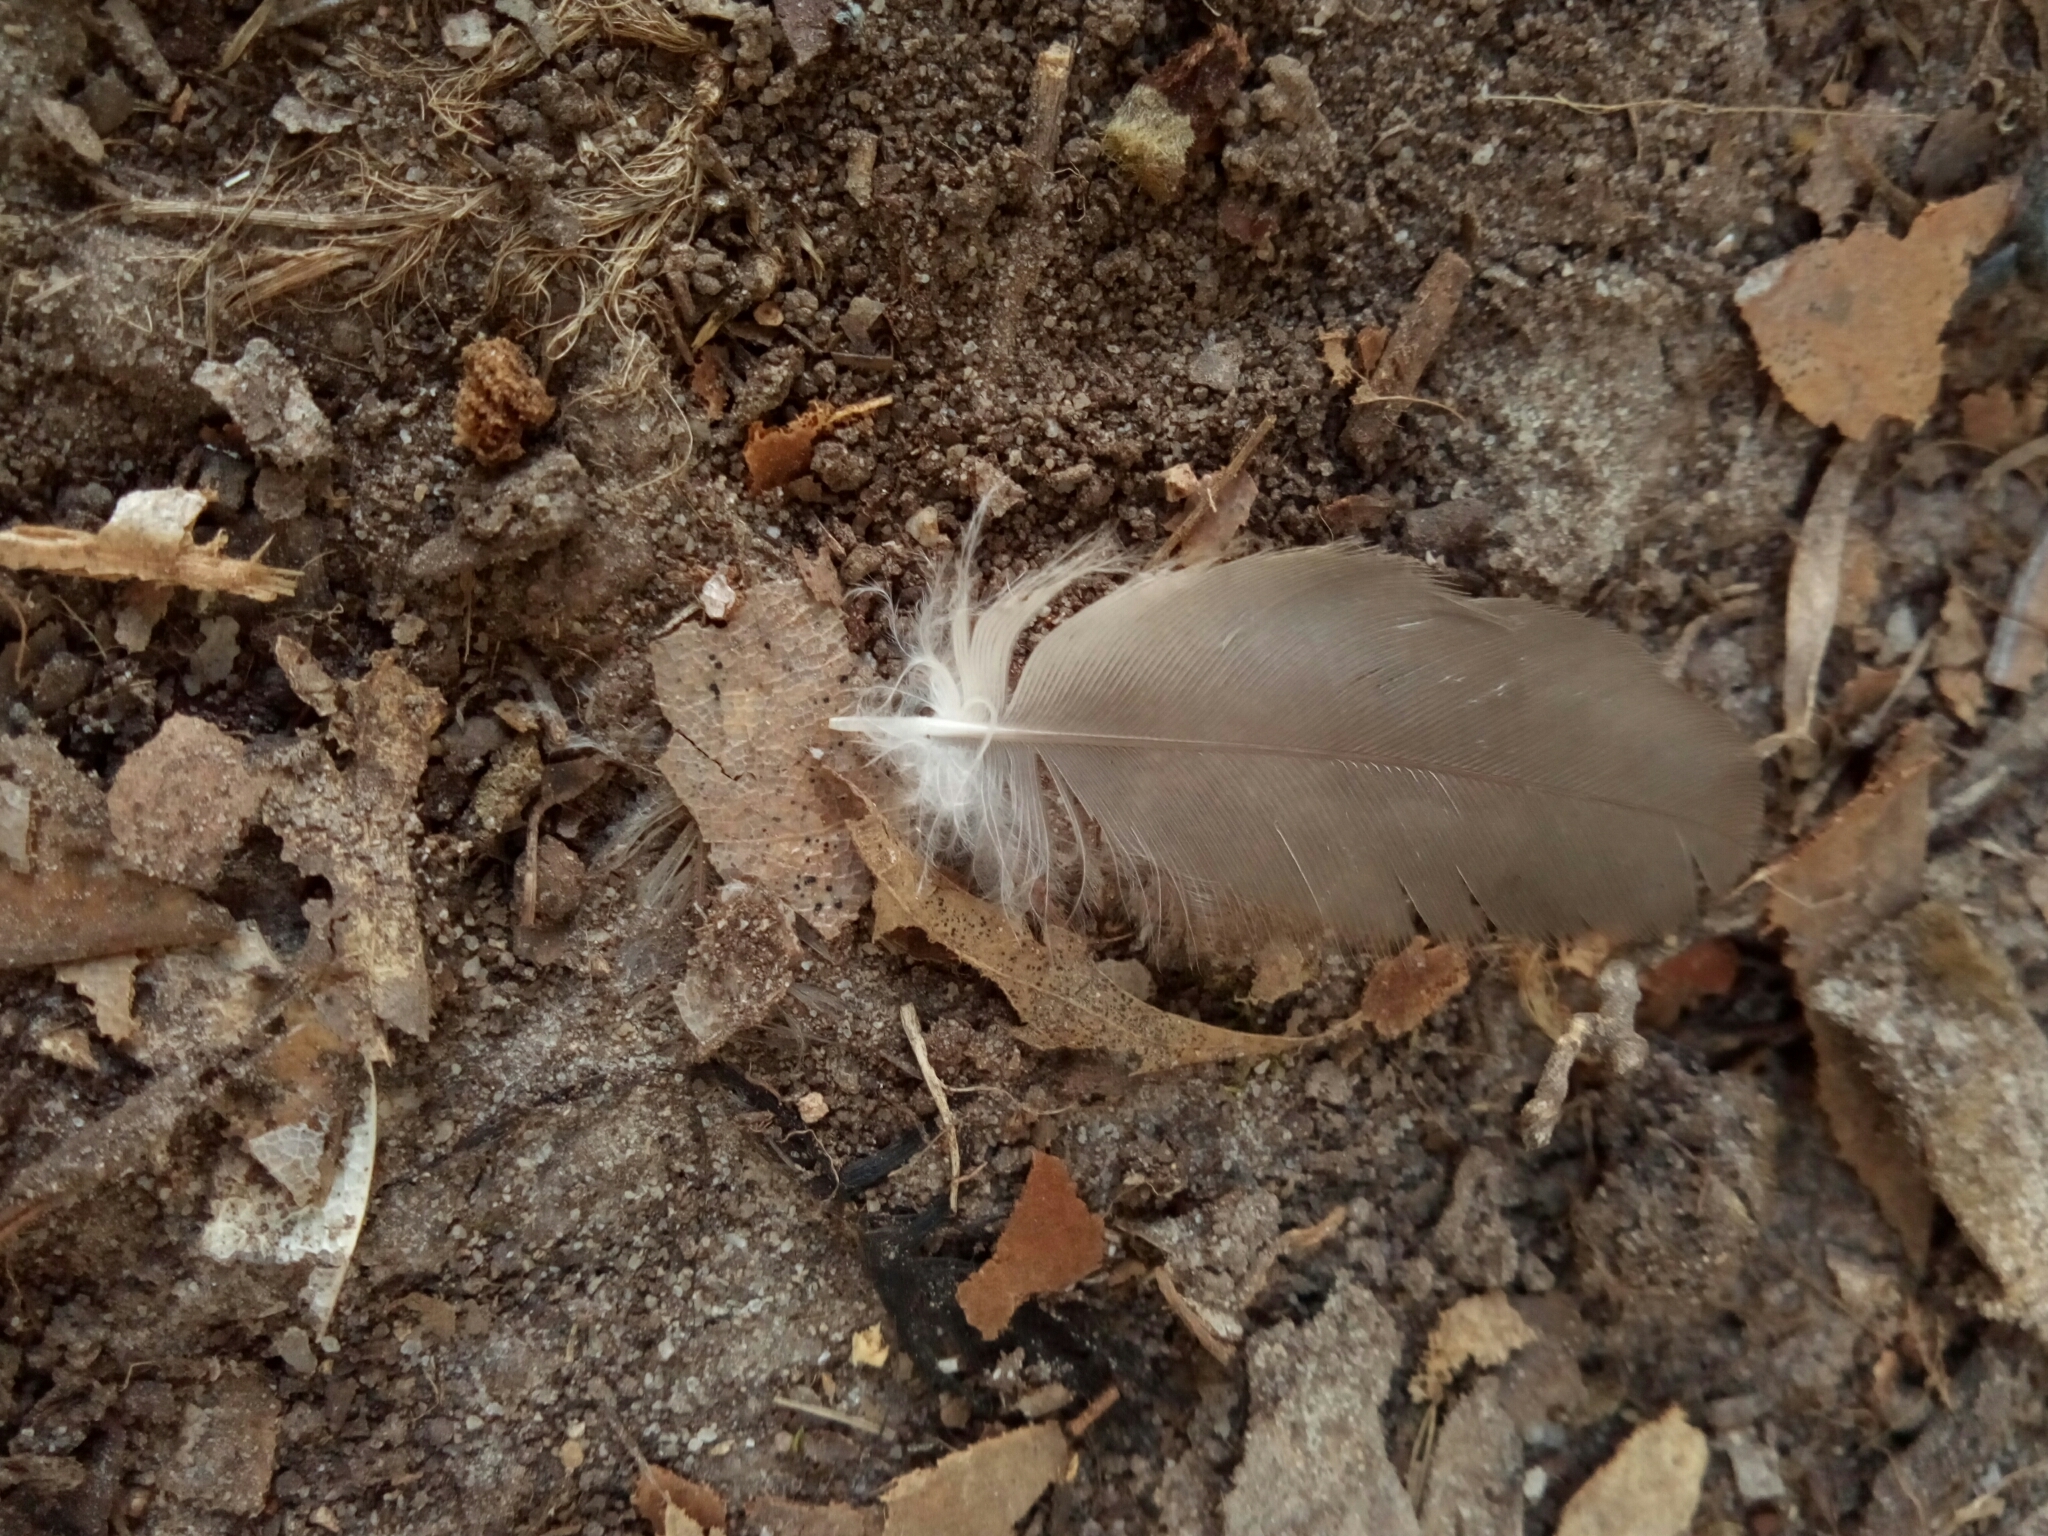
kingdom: Animalia
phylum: Chordata
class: Aves
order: Columbiformes
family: Columbidae
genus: Zenaida
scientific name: Zenaida macroura
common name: Mourning dove
